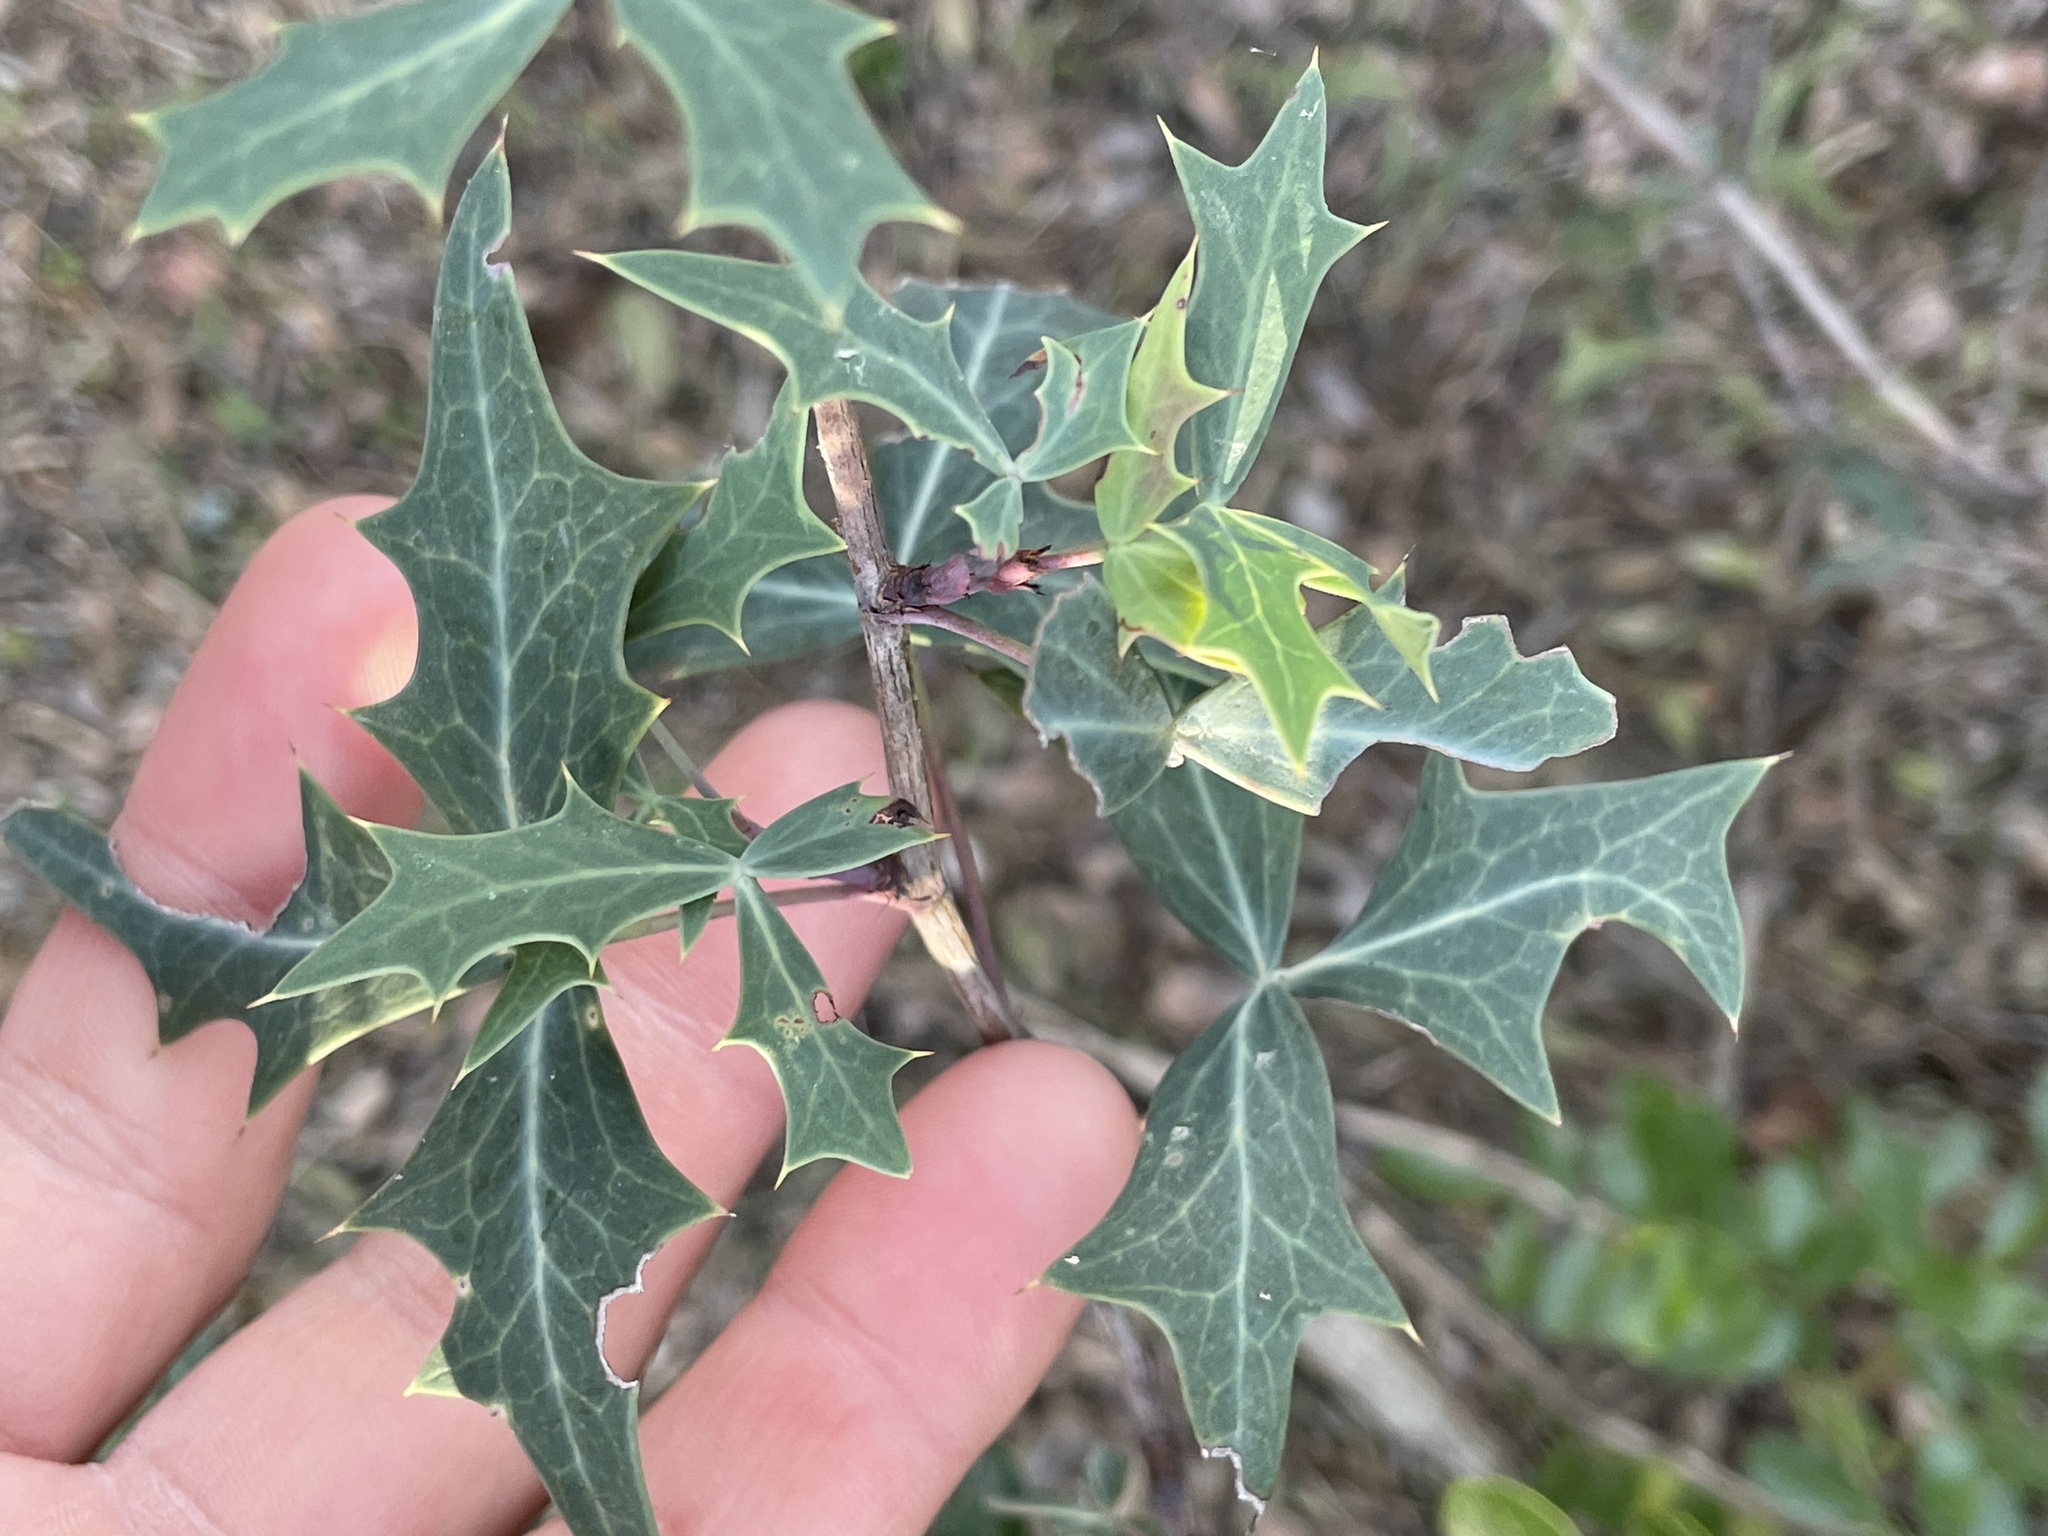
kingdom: Plantae
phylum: Tracheophyta
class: Magnoliopsida
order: Ranunculales
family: Berberidaceae
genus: Alloberberis
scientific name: Alloberberis trifoliolata
